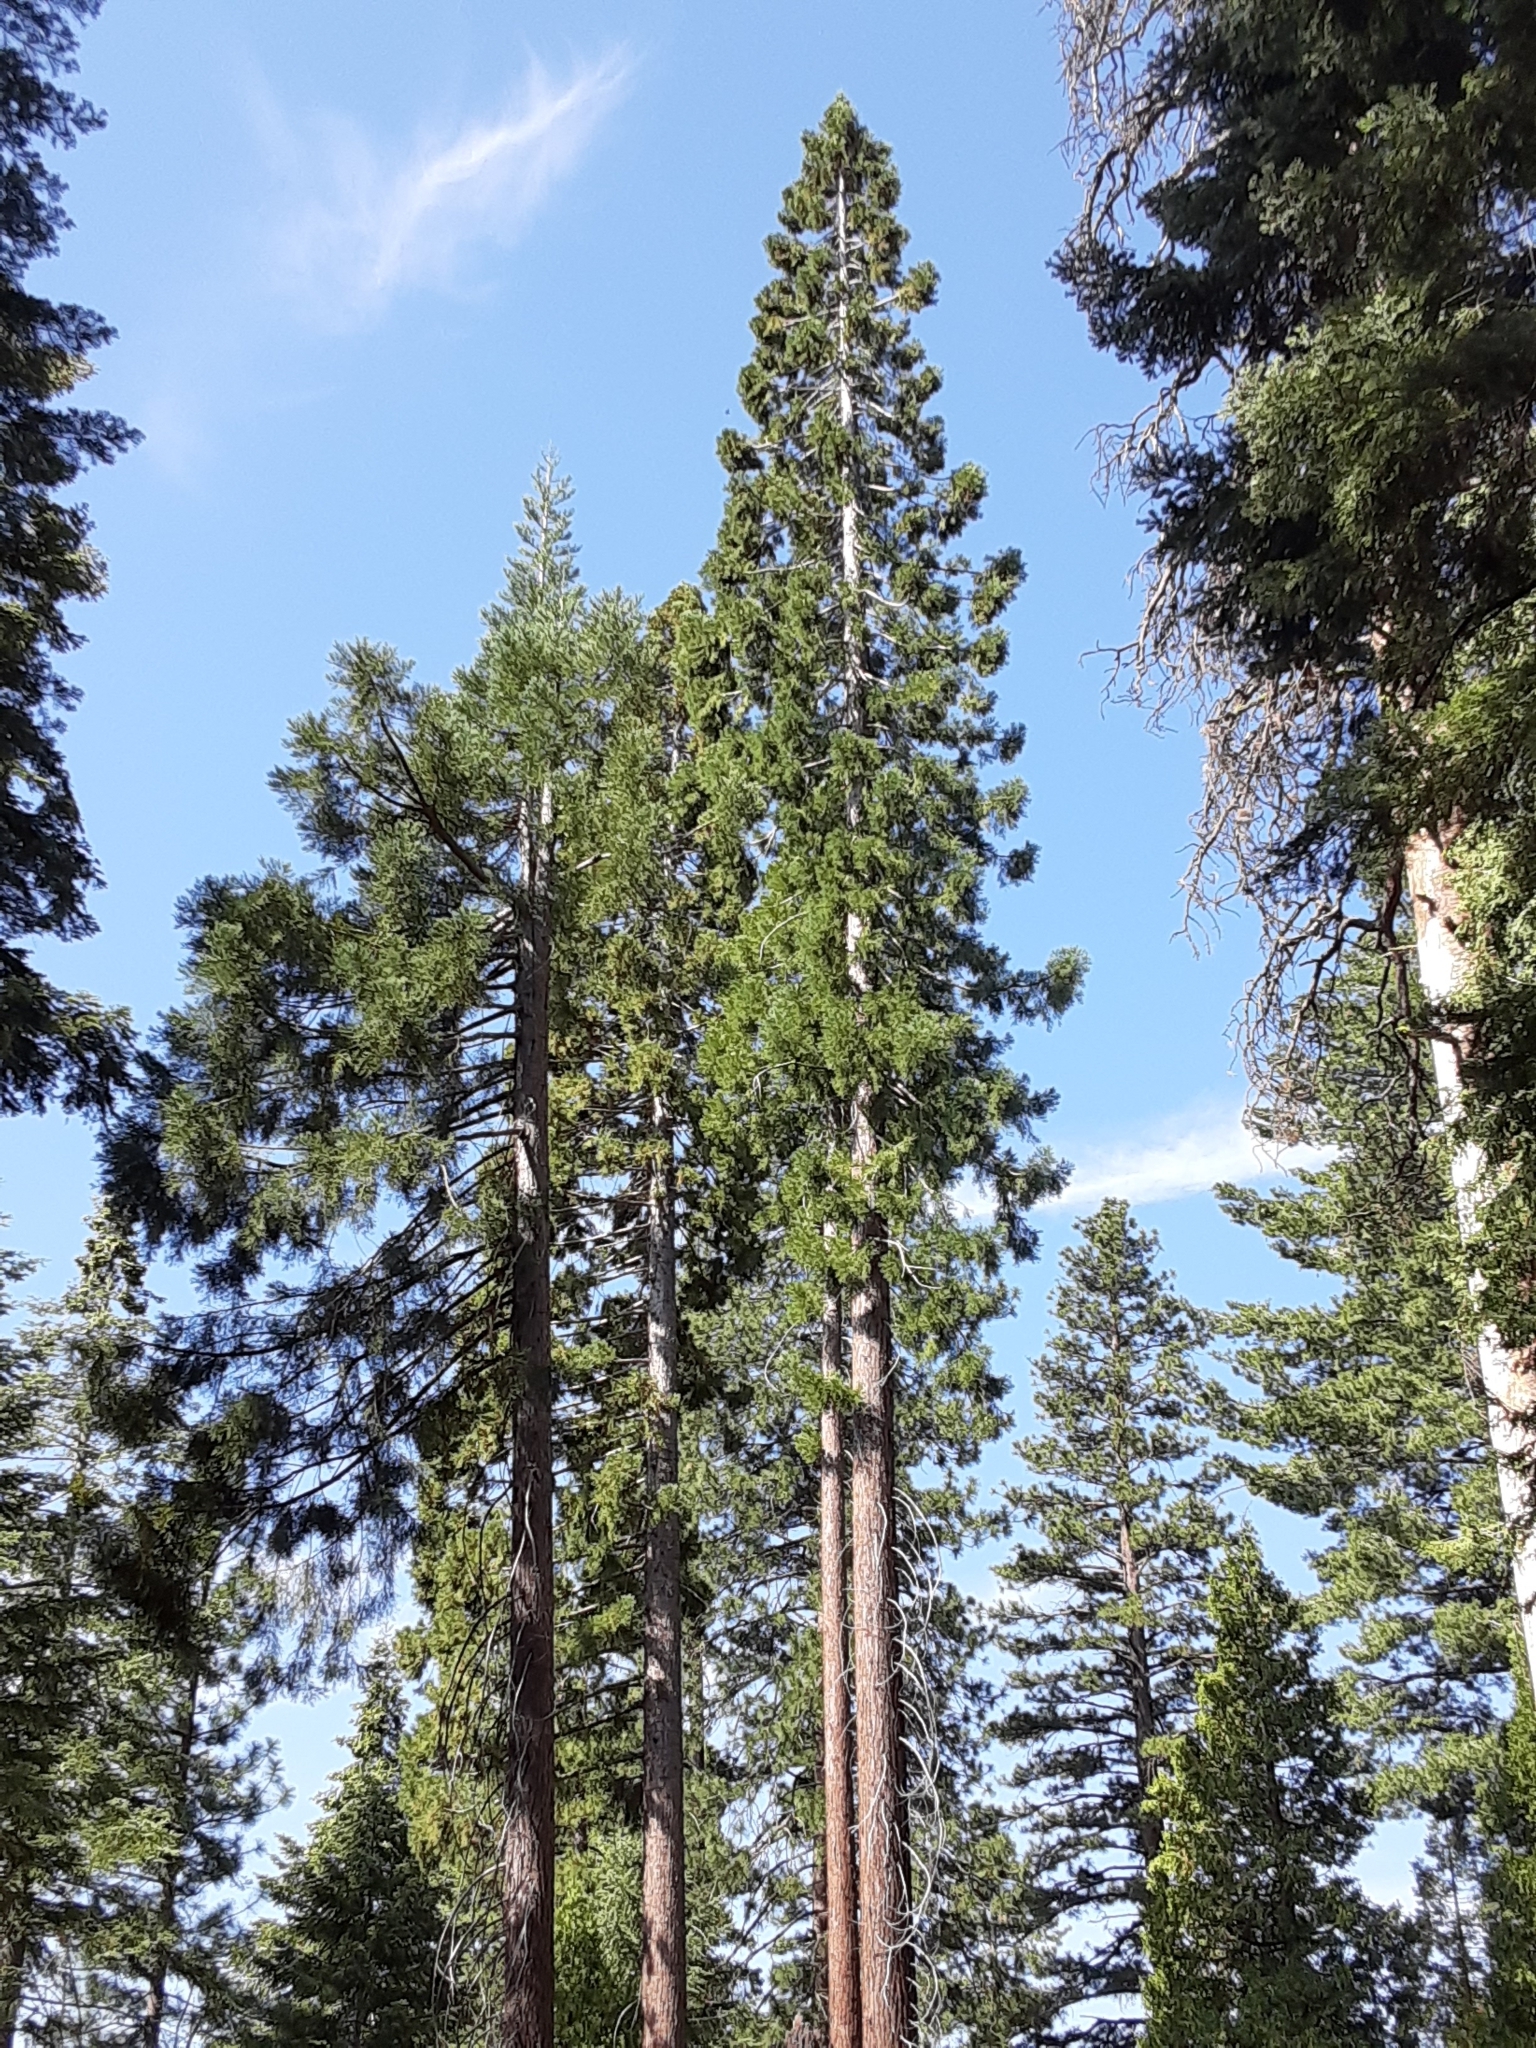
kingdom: Plantae
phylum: Tracheophyta
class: Pinopsida
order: Pinales
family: Cupressaceae
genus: Sequoiadendron
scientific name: Sequoiadendron giganteum
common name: Wellingtonia
